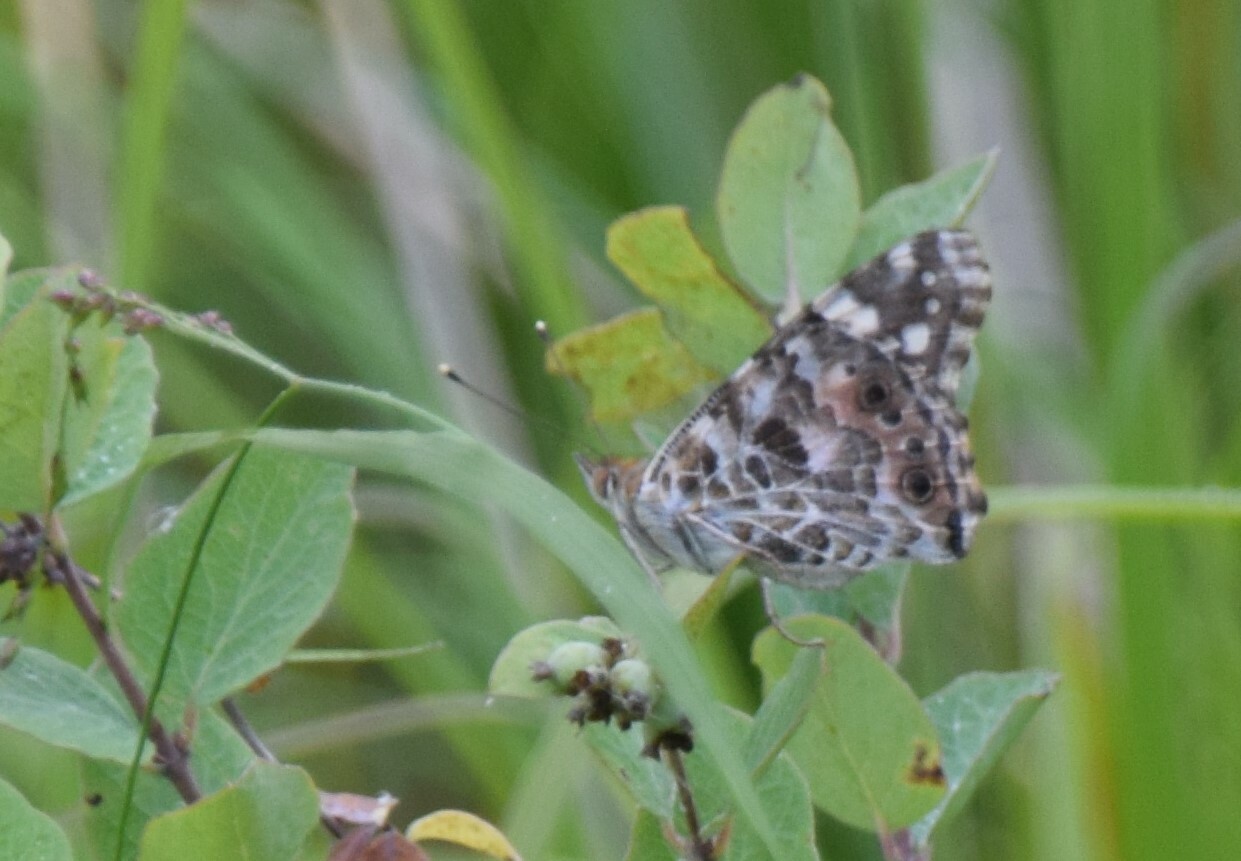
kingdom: Animalia
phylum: Arthropoda
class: Insecta
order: Lepidoptera
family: Nymphalidae
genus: Vanessa
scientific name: Vanessa cardui
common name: Painted lady
